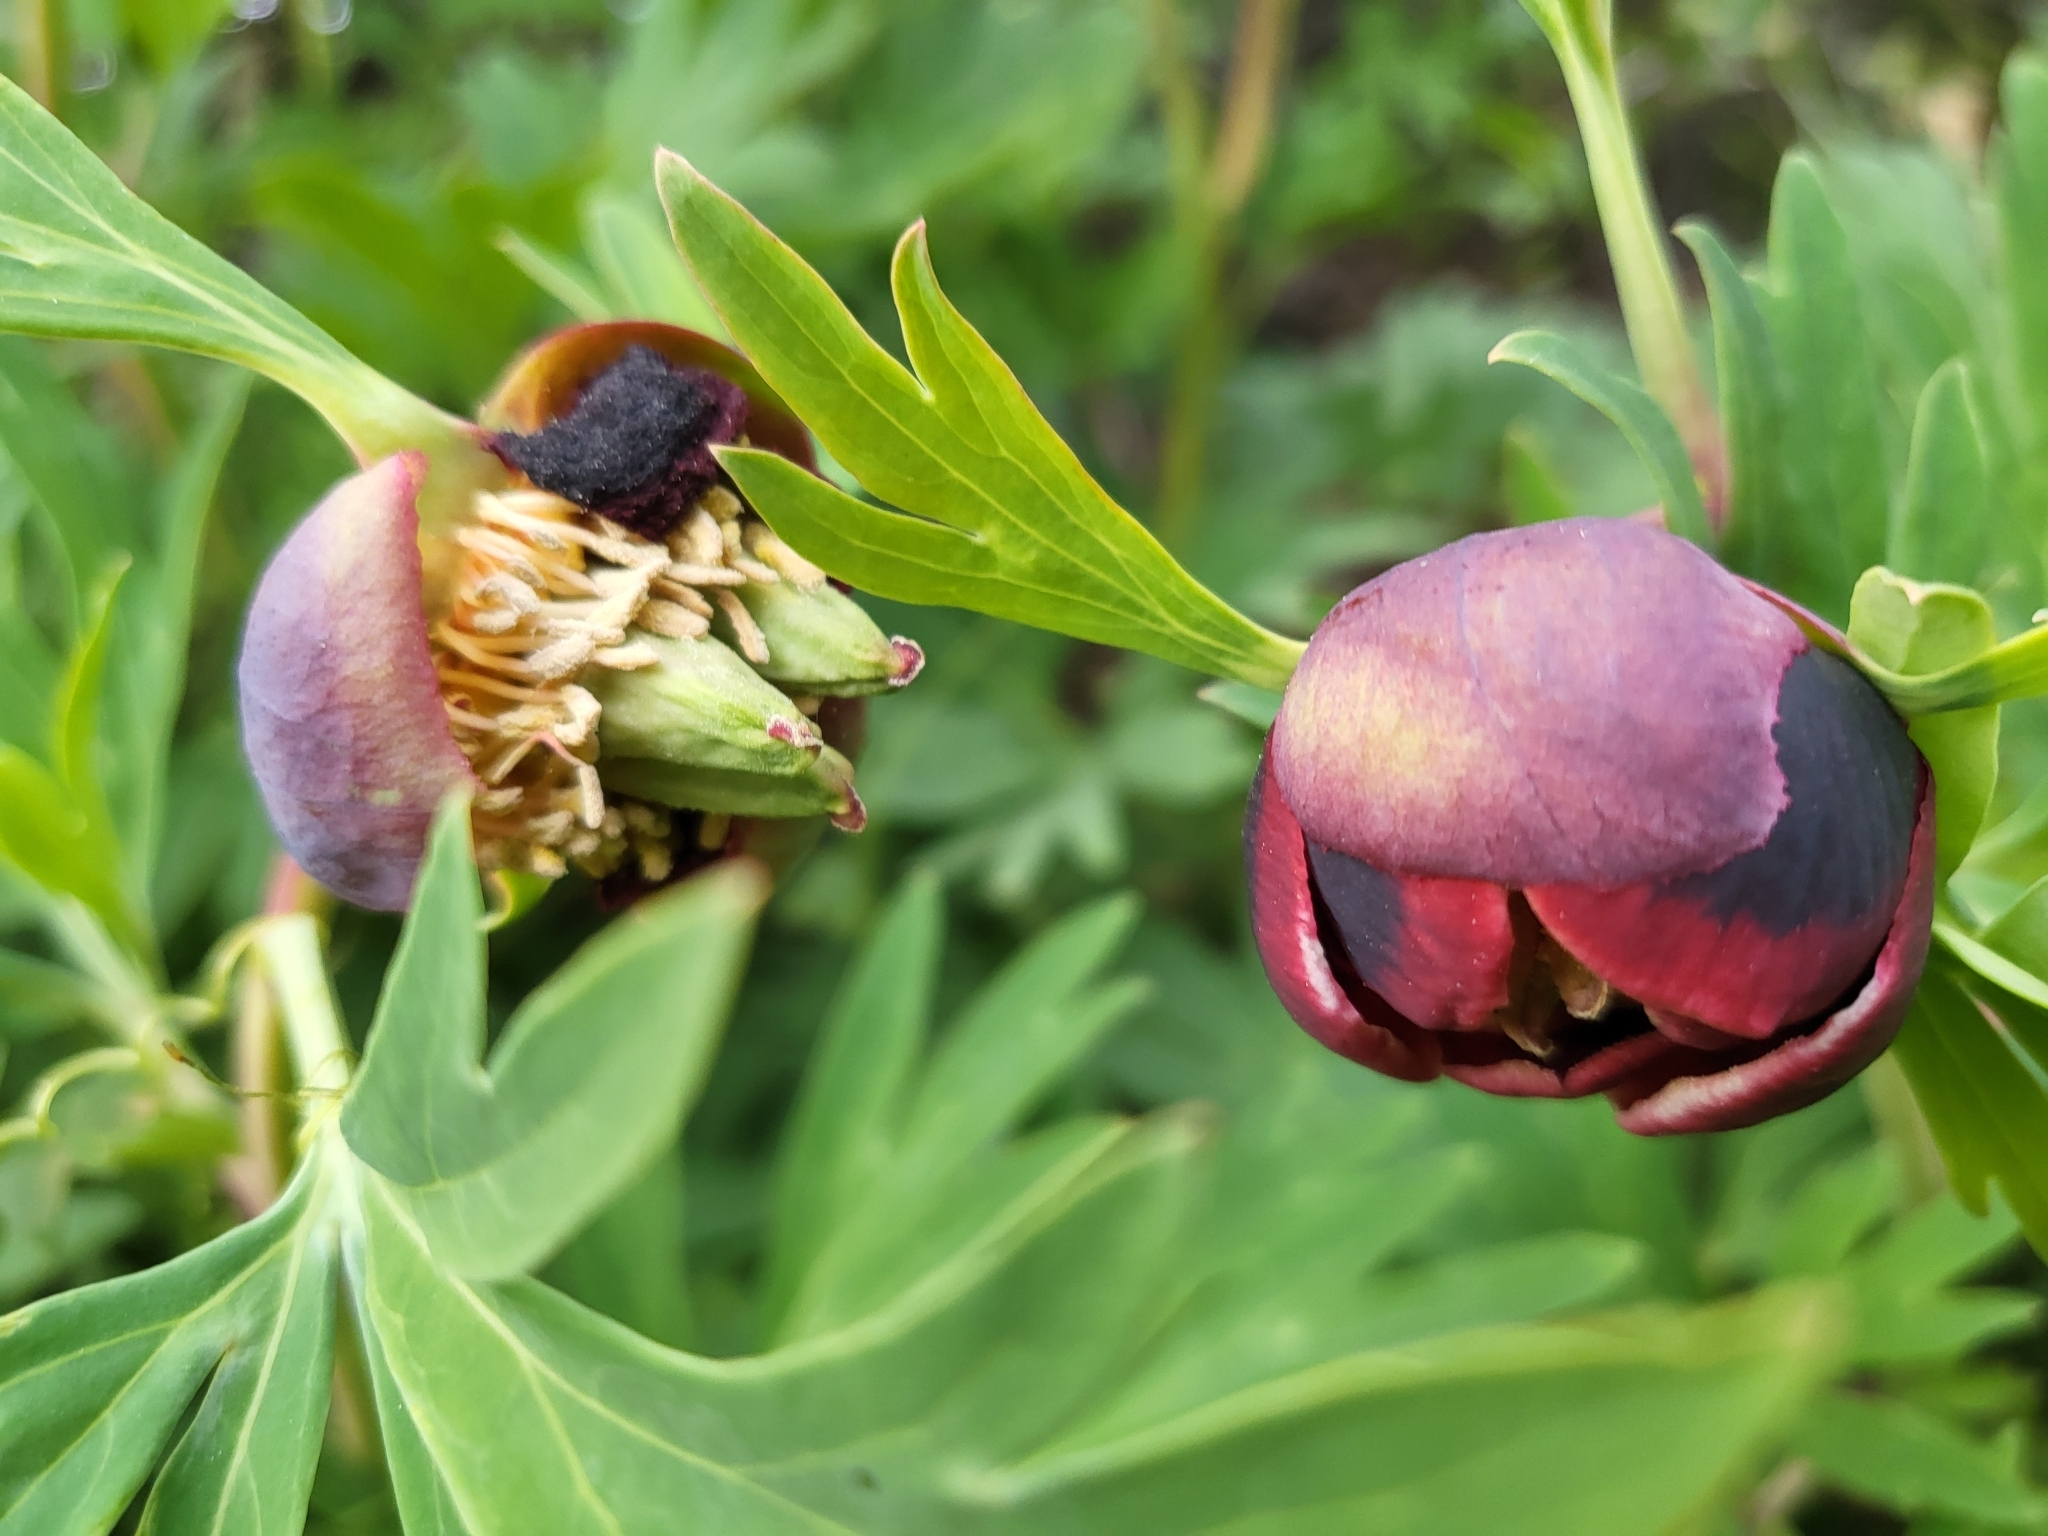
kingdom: Plantae
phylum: Tracheophyta
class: Magnoliopsida
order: Saxifragales
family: Paeoniaceae
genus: Paeonia
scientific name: Paeonia californica
